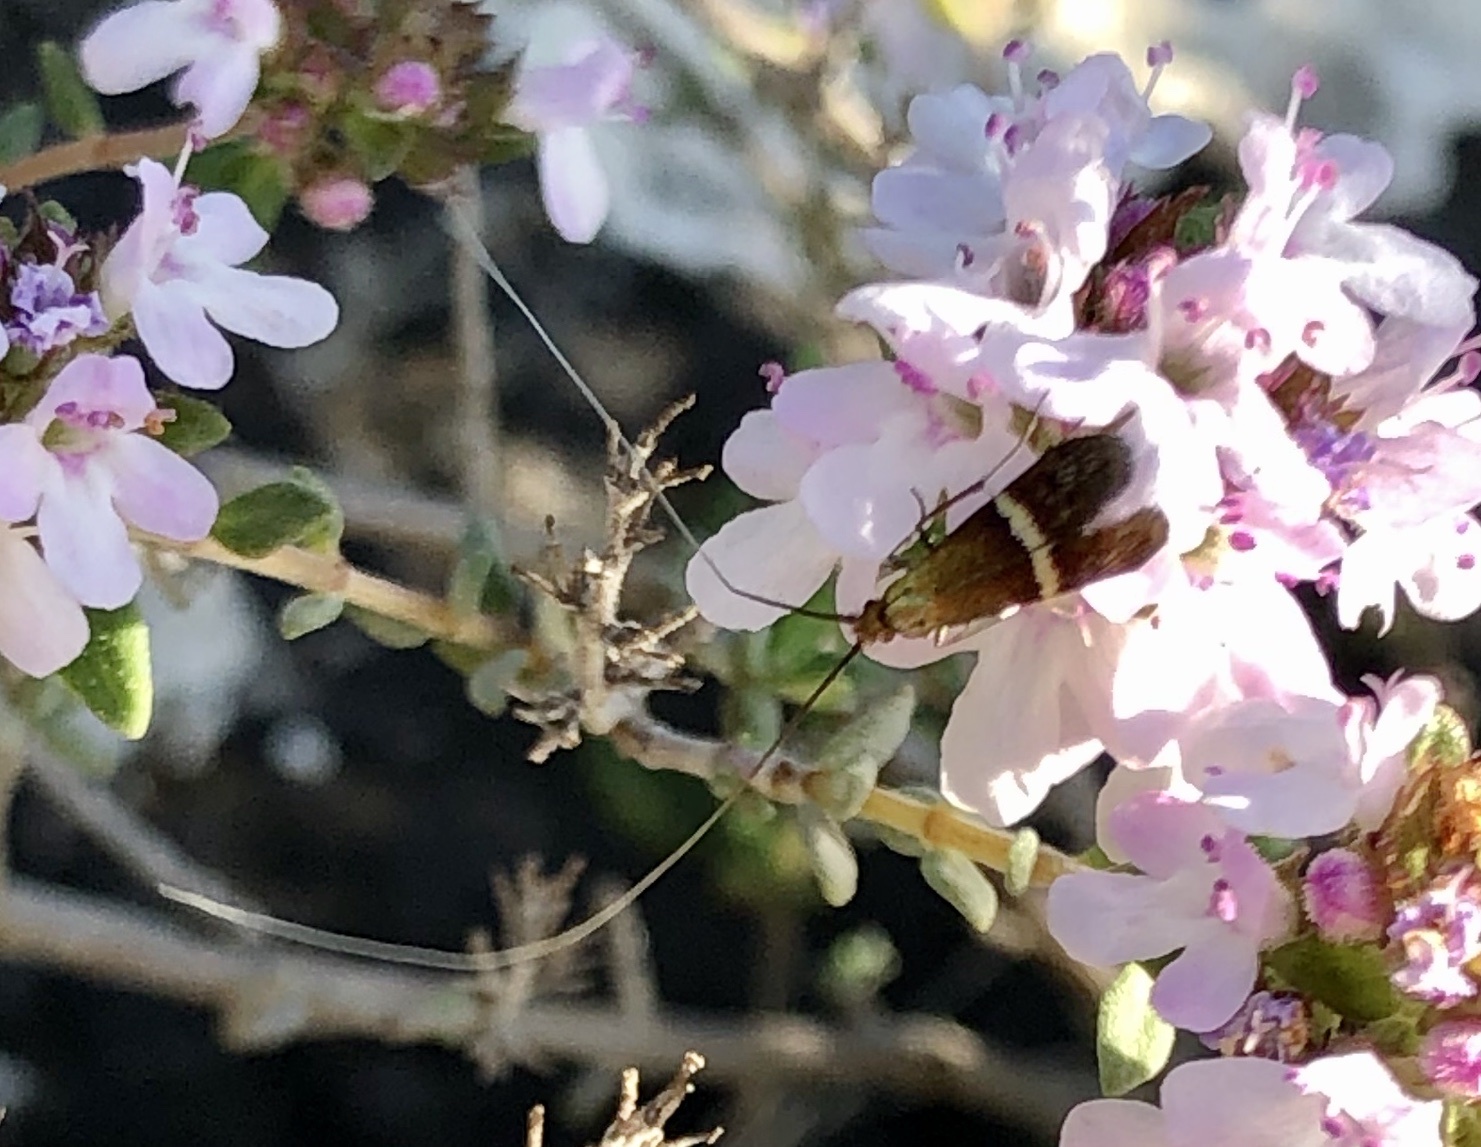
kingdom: Animalia
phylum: Arthropoda
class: Insecta
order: Lepidoptera
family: Adelidae
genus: Adela
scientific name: Adela australis
